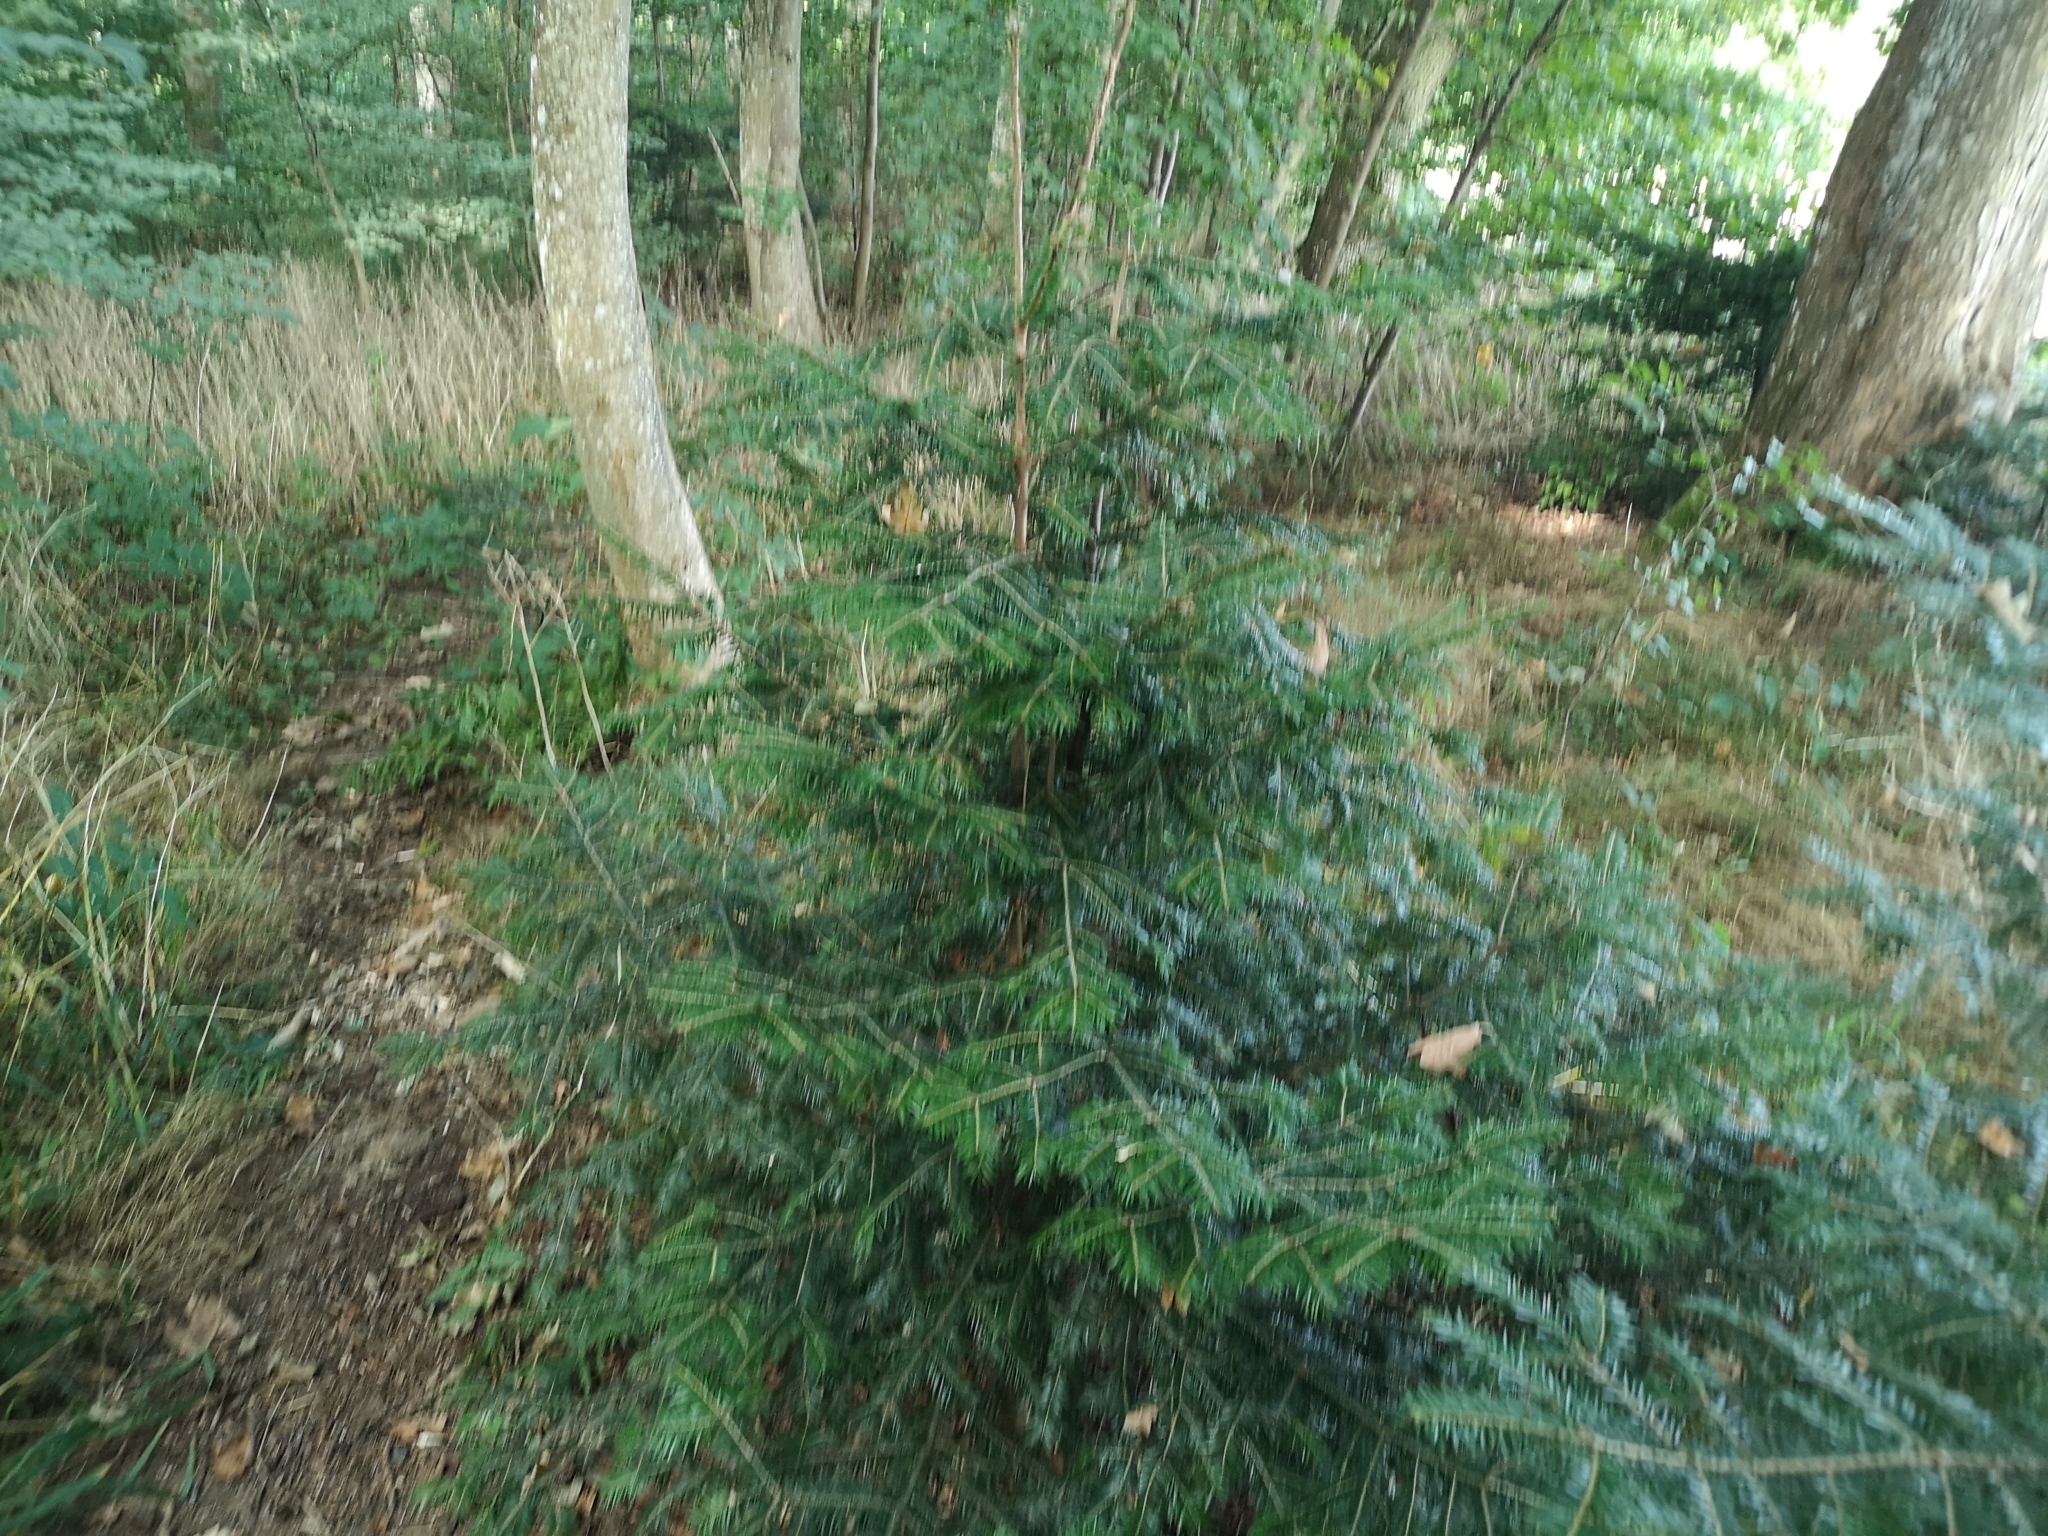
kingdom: Plantae
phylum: Tracheophyta
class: Pinopsida
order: Pinales
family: Pinaceae
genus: Abies
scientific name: Abies alba
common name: Silver fir
